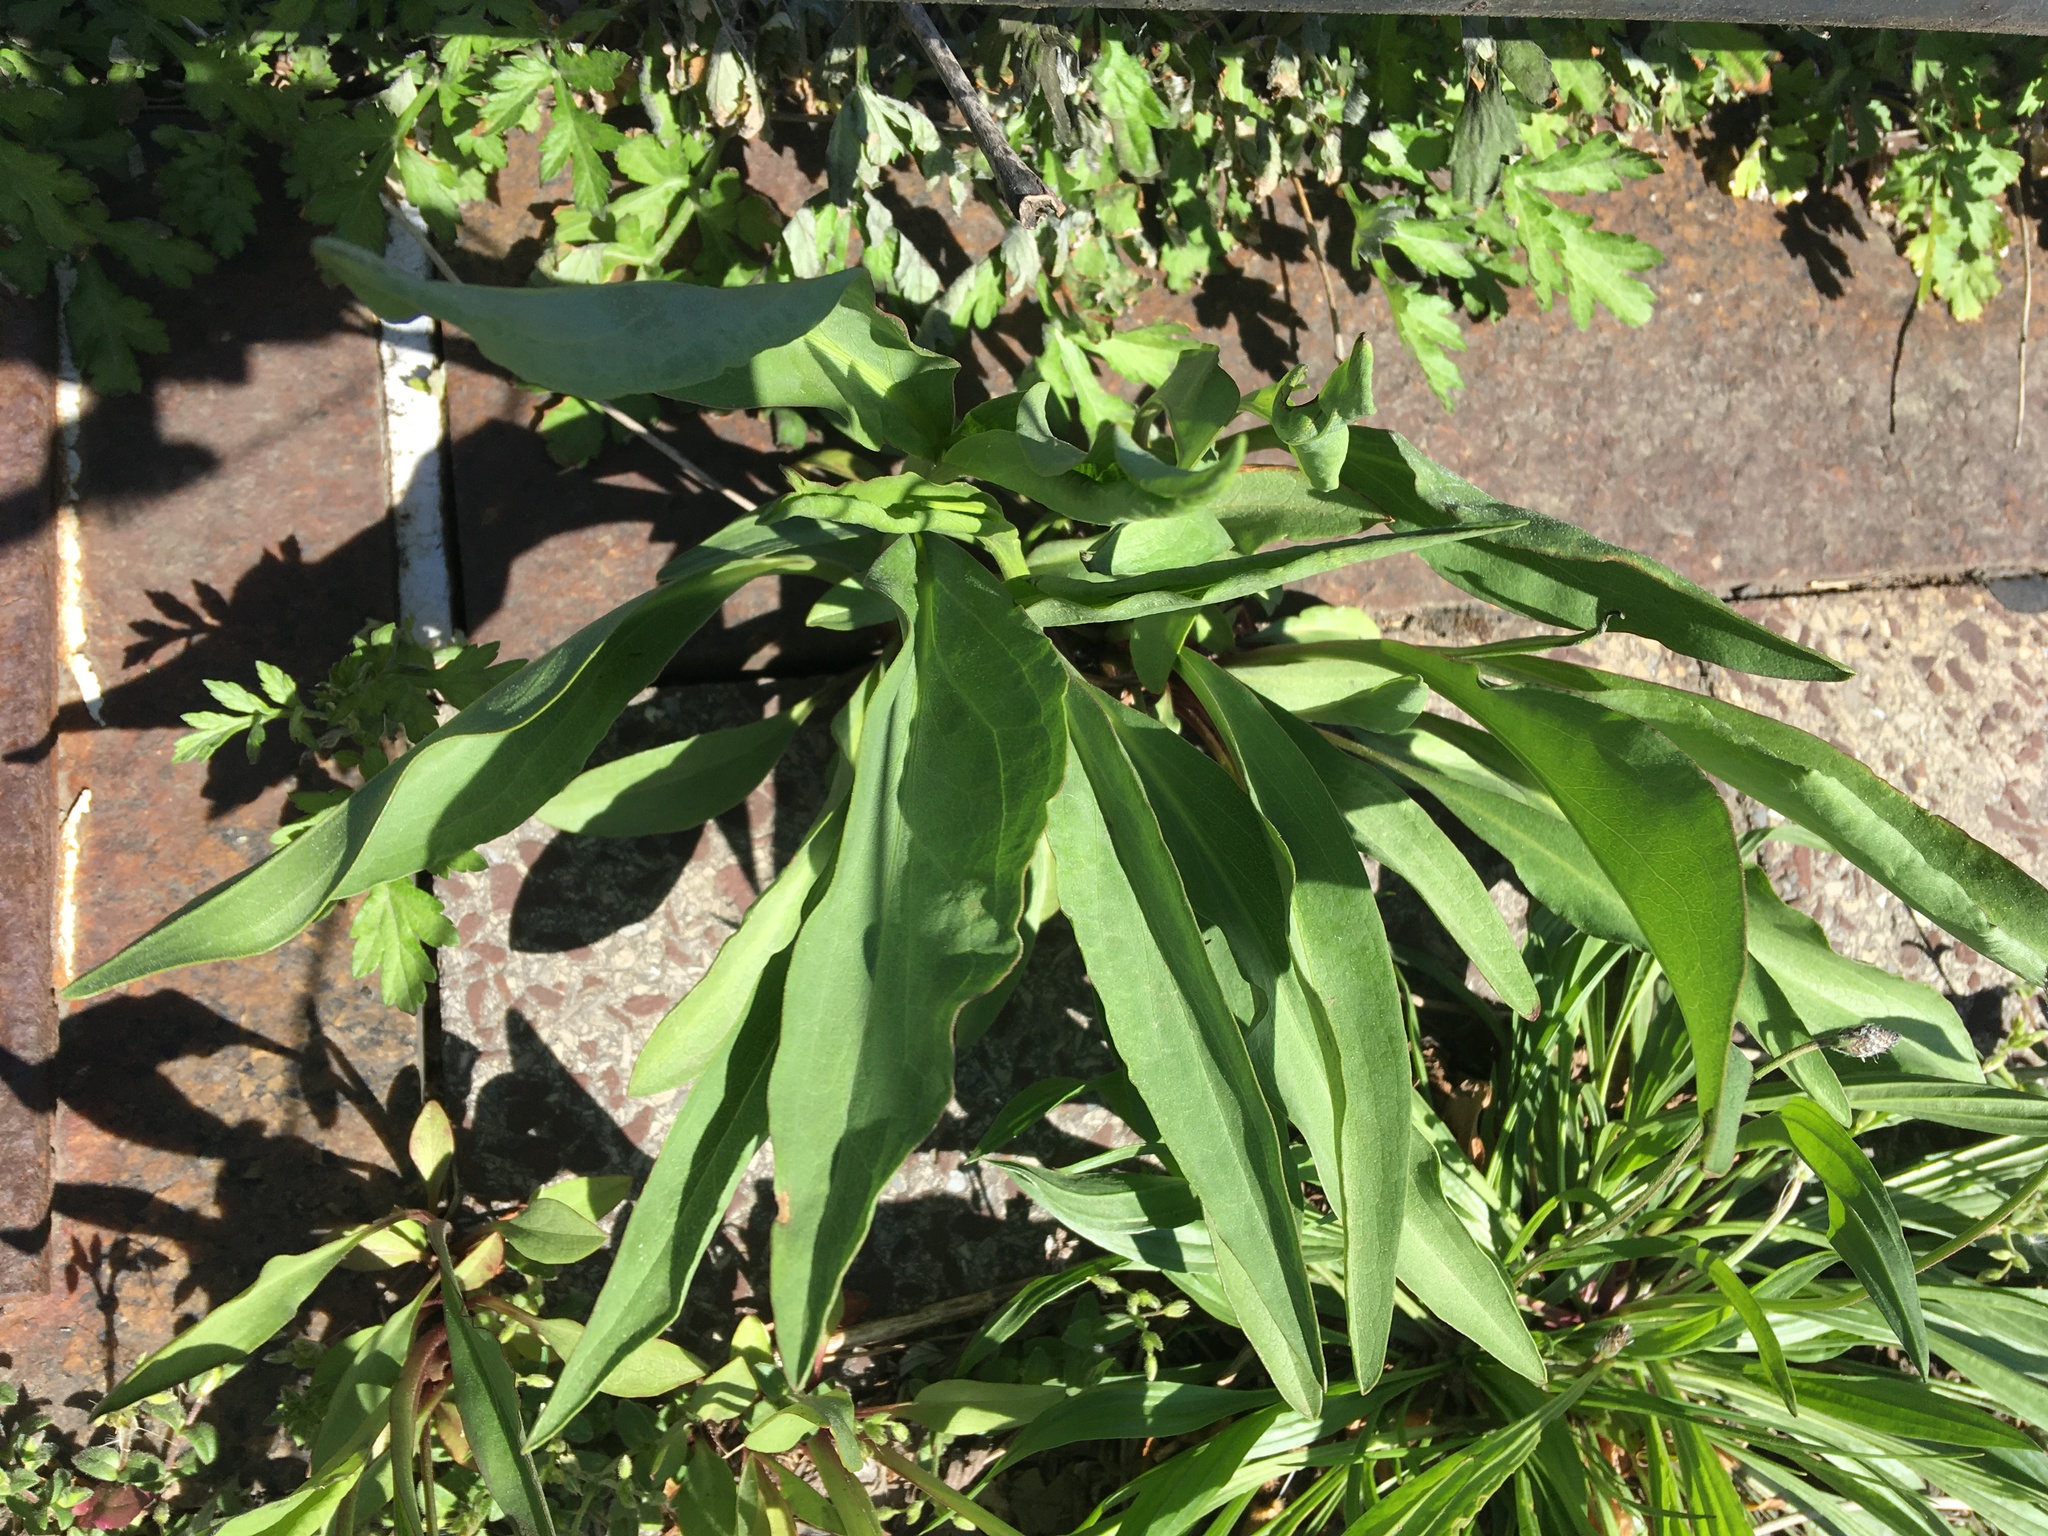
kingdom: Plantae
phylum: Tracheophyta
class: Magnoliopsida
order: Asterales
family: Asteraceae
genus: Solidago
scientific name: Solidago sempervirens
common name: Salt-marsh goldenrod
